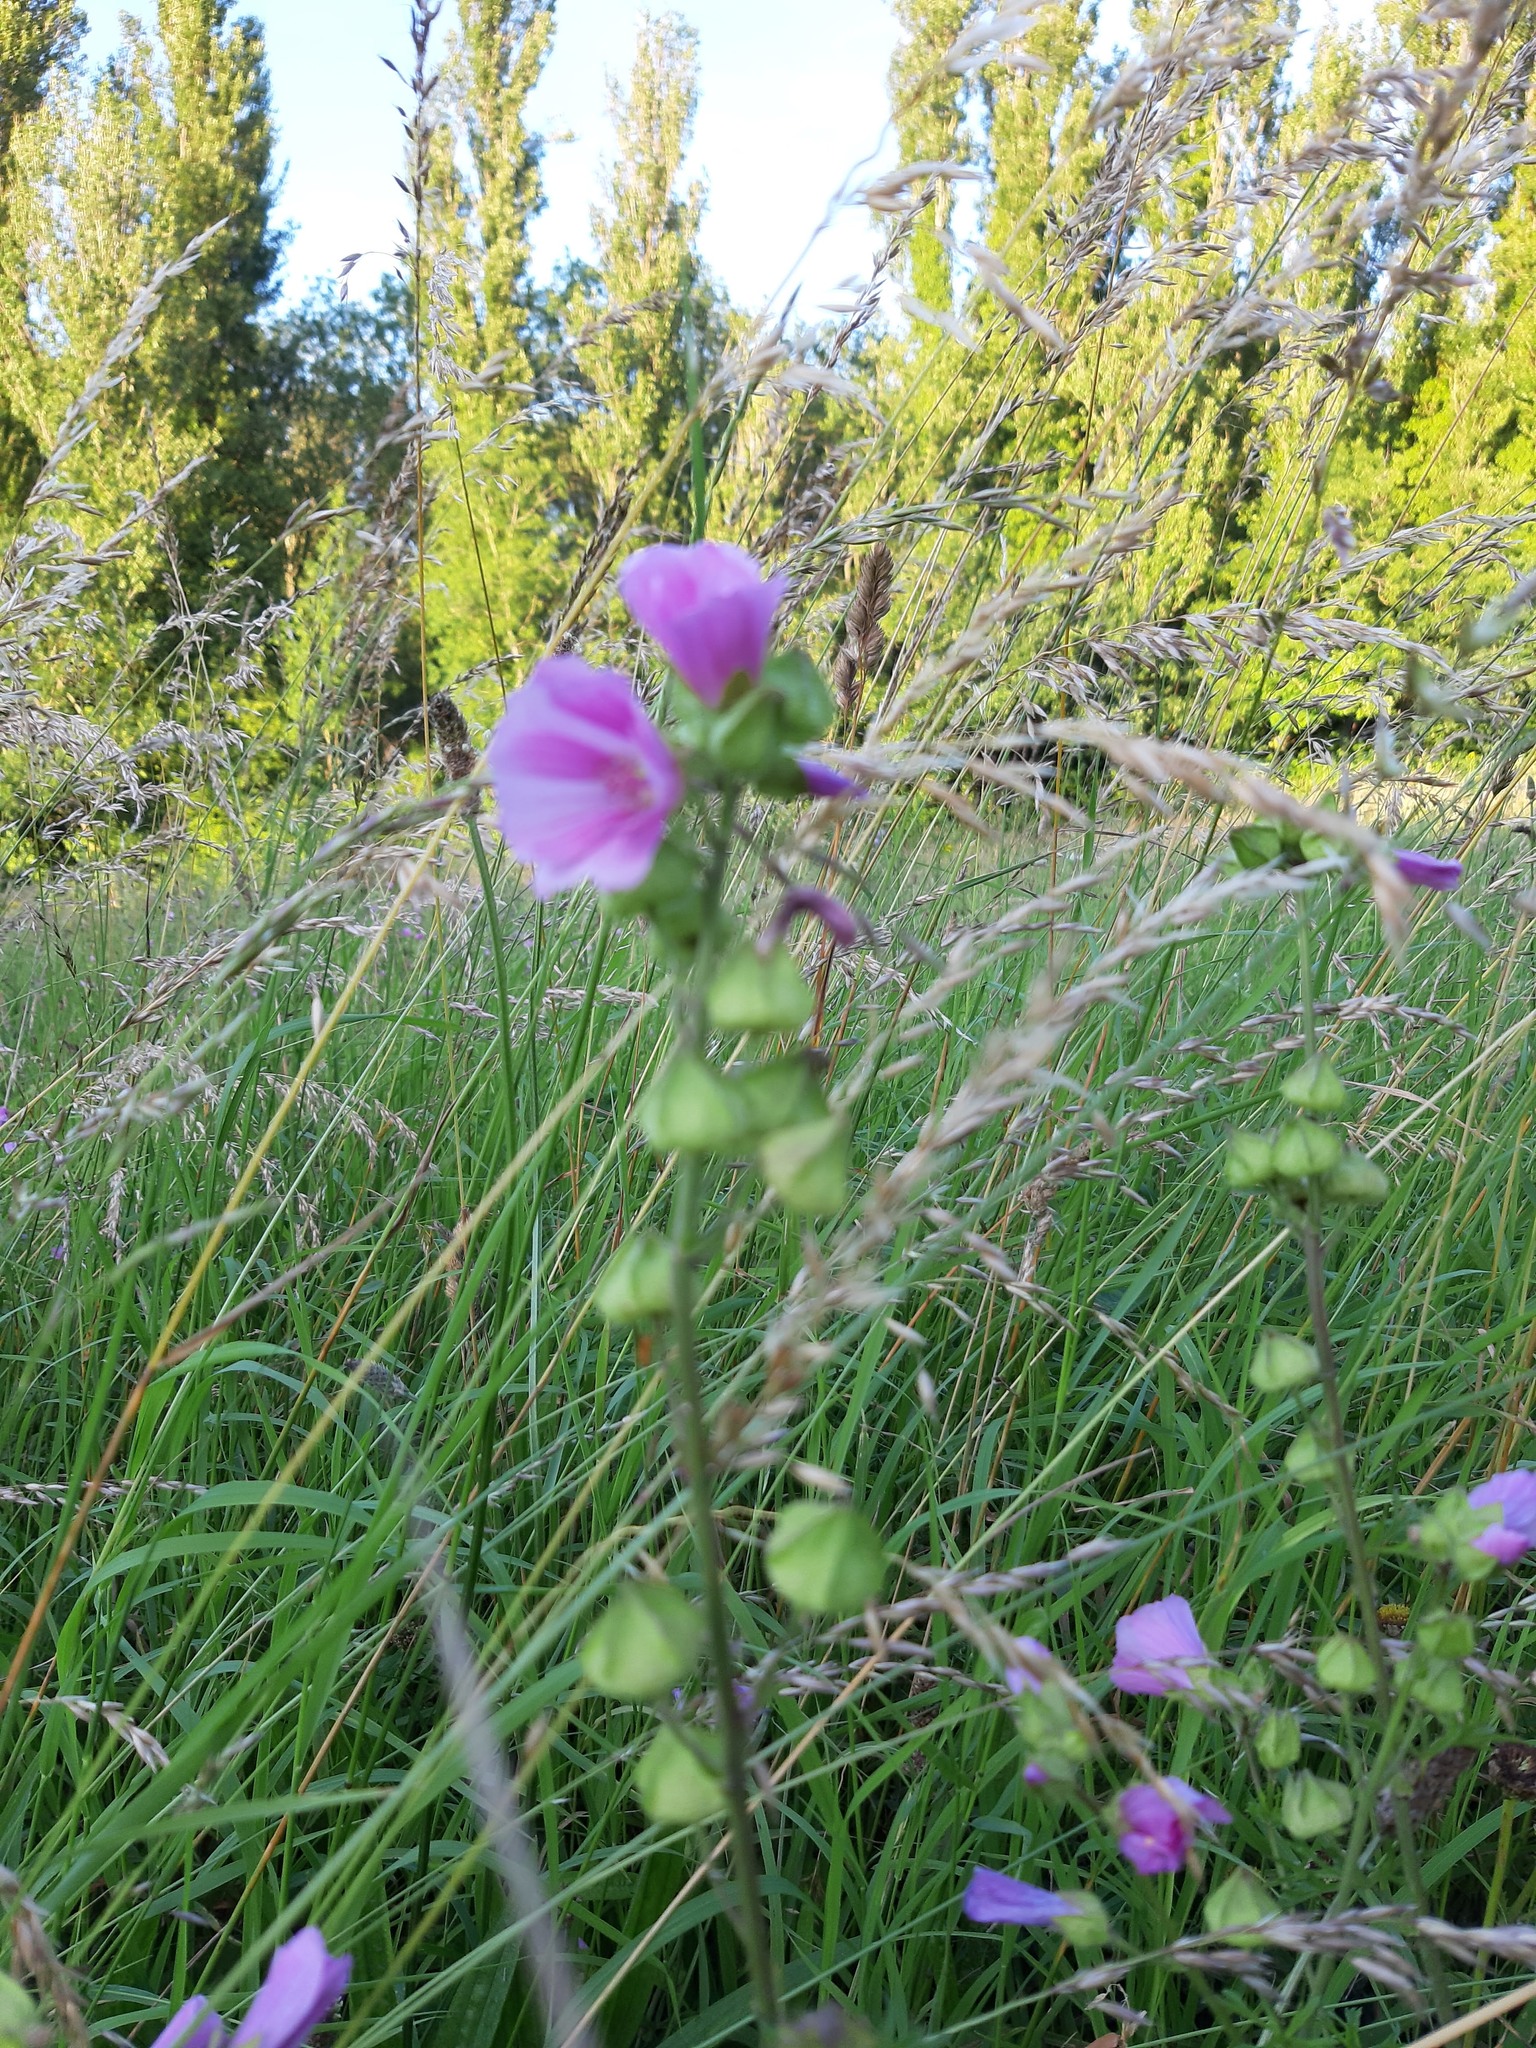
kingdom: Plantae
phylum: Tracheophyta
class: Magnoliopsida
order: Malvales
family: Malvaceae
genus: Malva
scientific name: Malva moschata
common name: Musk mallow
